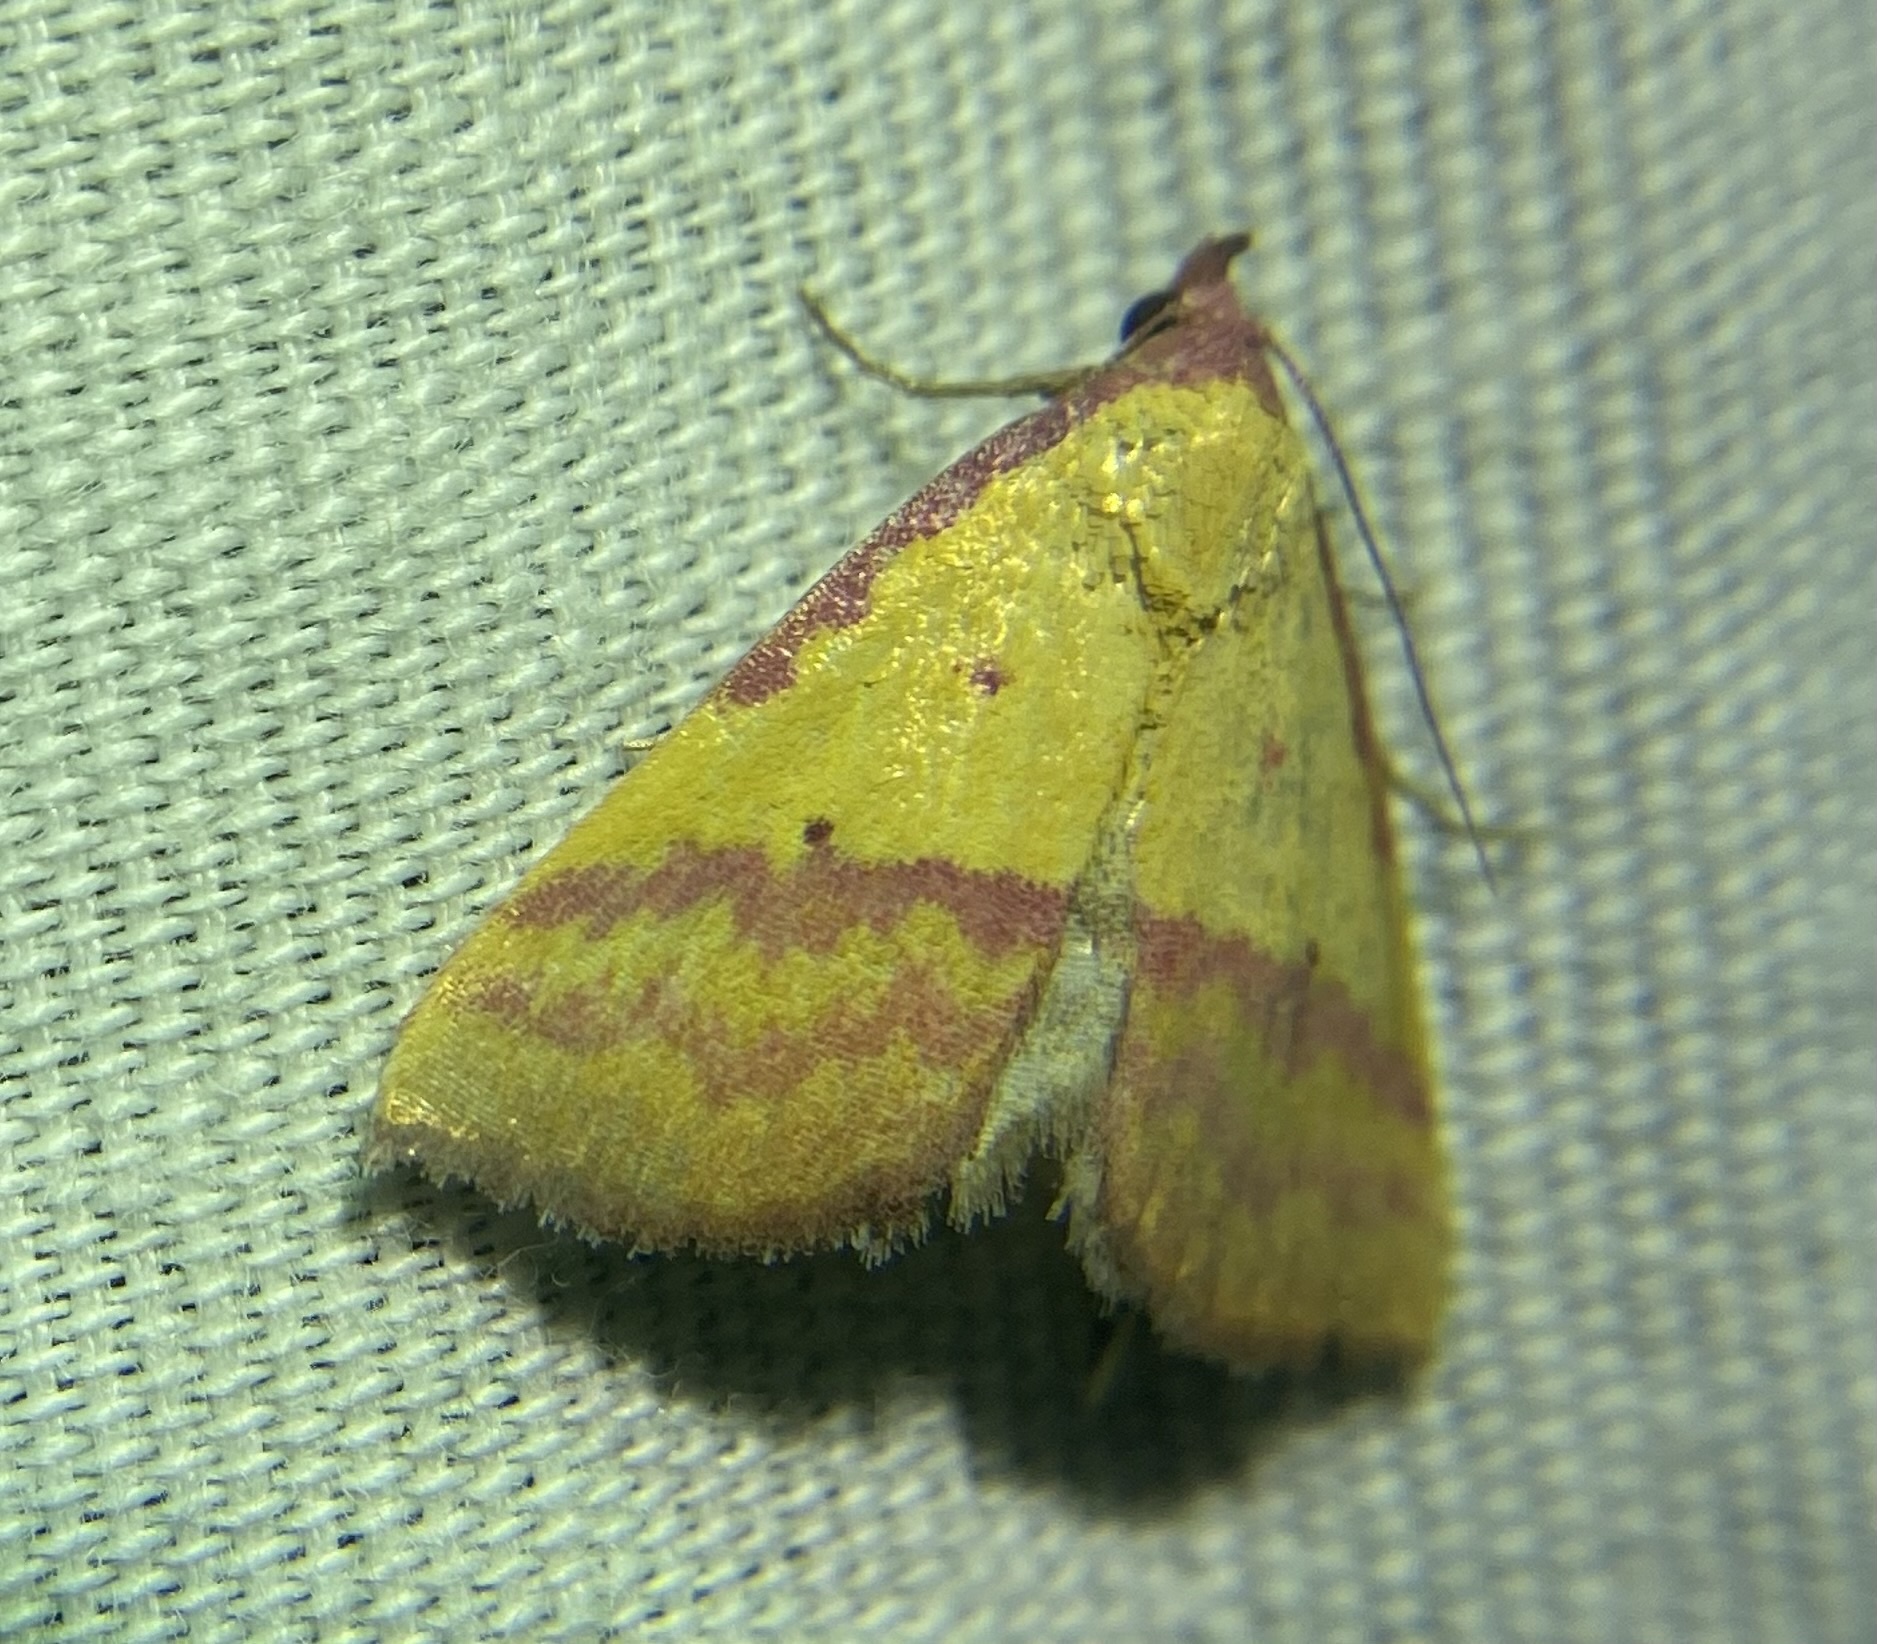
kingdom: Animalia
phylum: Arthropoda
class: Insecta
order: Lepidoptera
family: Erebidae
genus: Phytometra
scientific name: Phytometra rhodarialis
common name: Pink-bordered yellow
